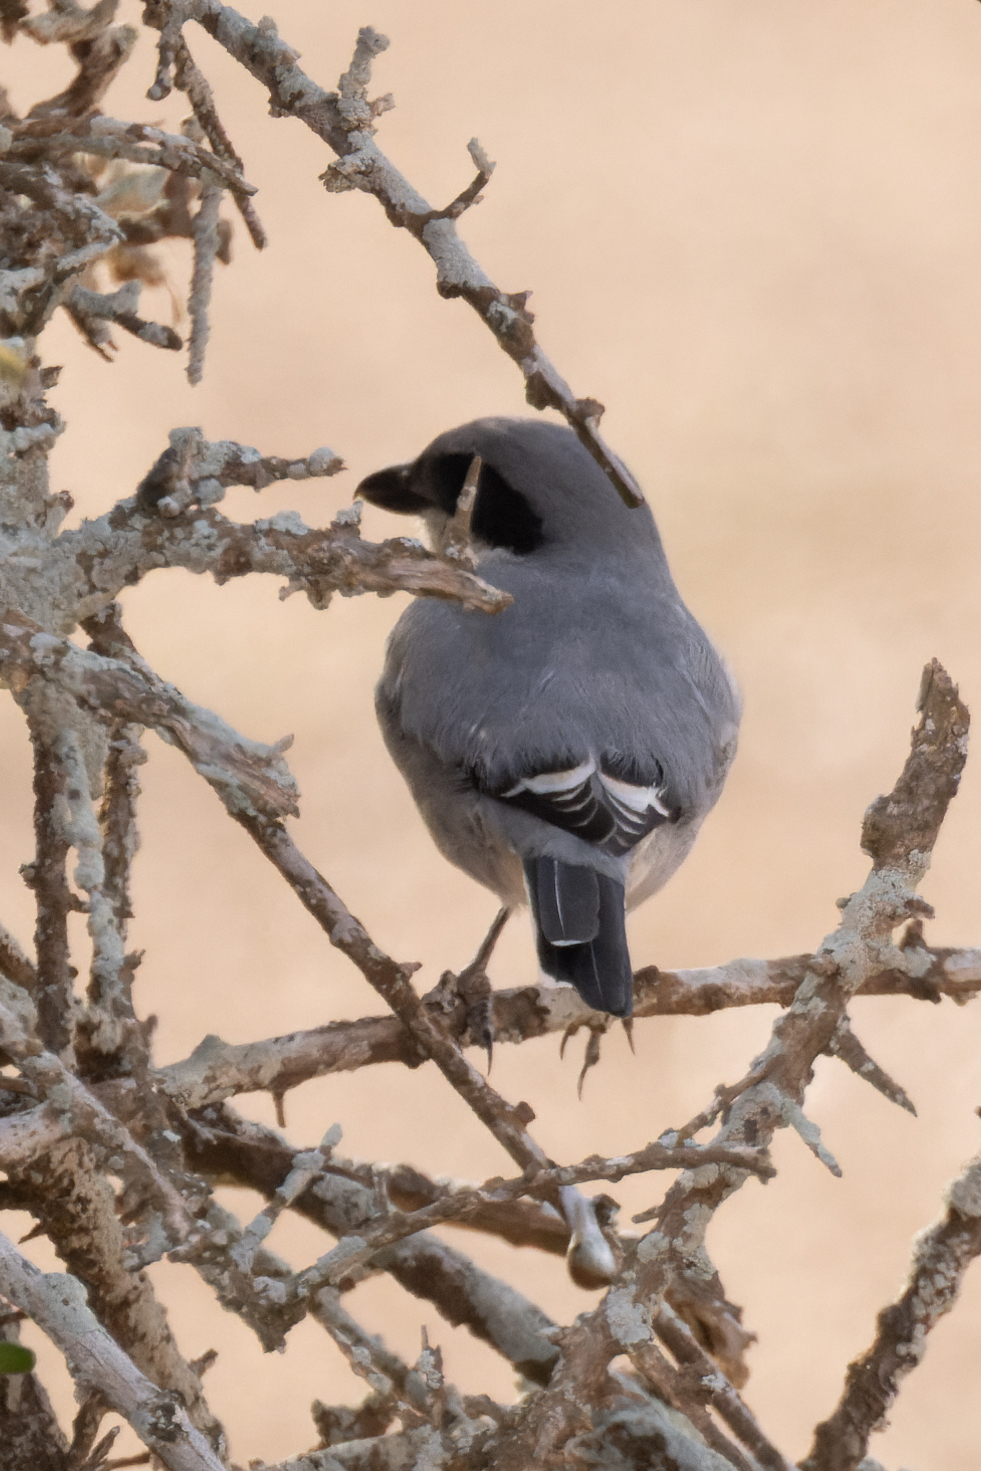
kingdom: Animalia
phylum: Chordata
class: Aves
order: Passeriformes
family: Laniidae
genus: Lanius
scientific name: Lanius excubitor
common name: Great grey shrike
